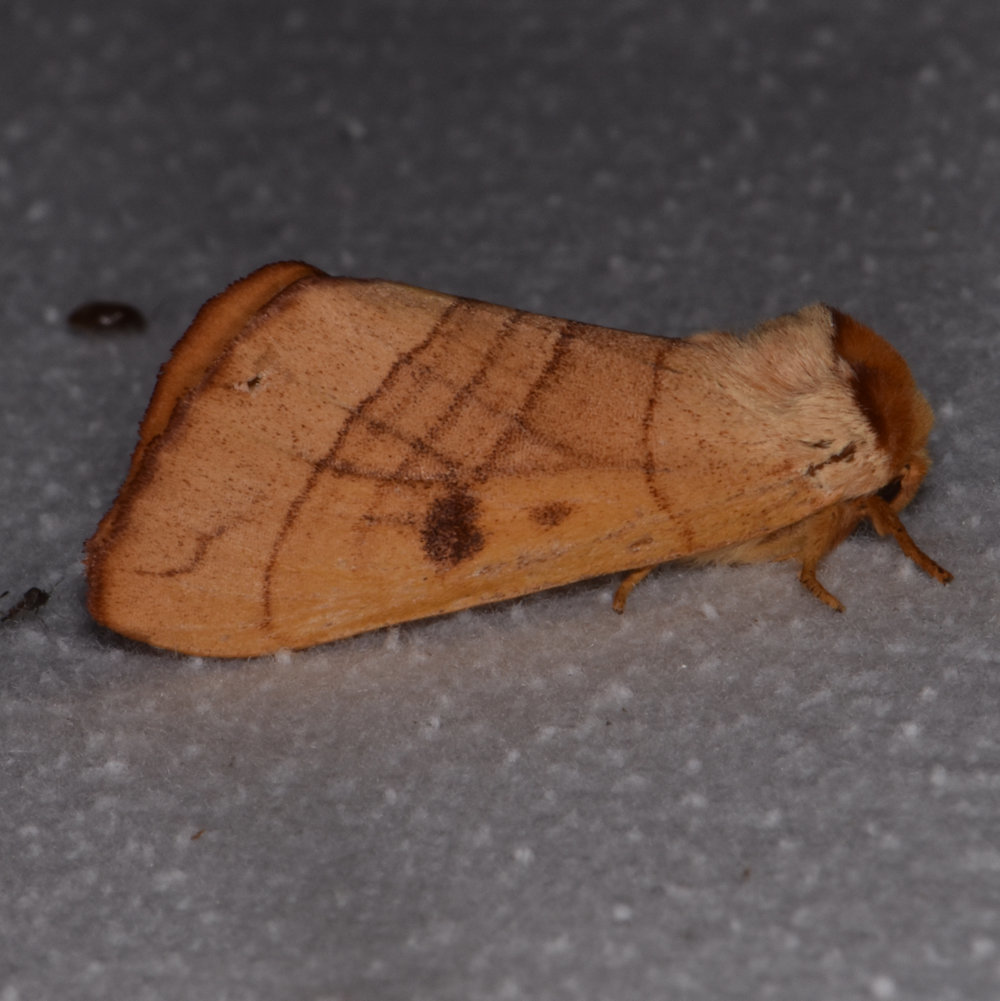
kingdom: Animalia
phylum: Arthropoda
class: Insecta
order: Lepidoptera
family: Notodontidae
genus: Datana
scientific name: Datana perspicua
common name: Spotted datana
